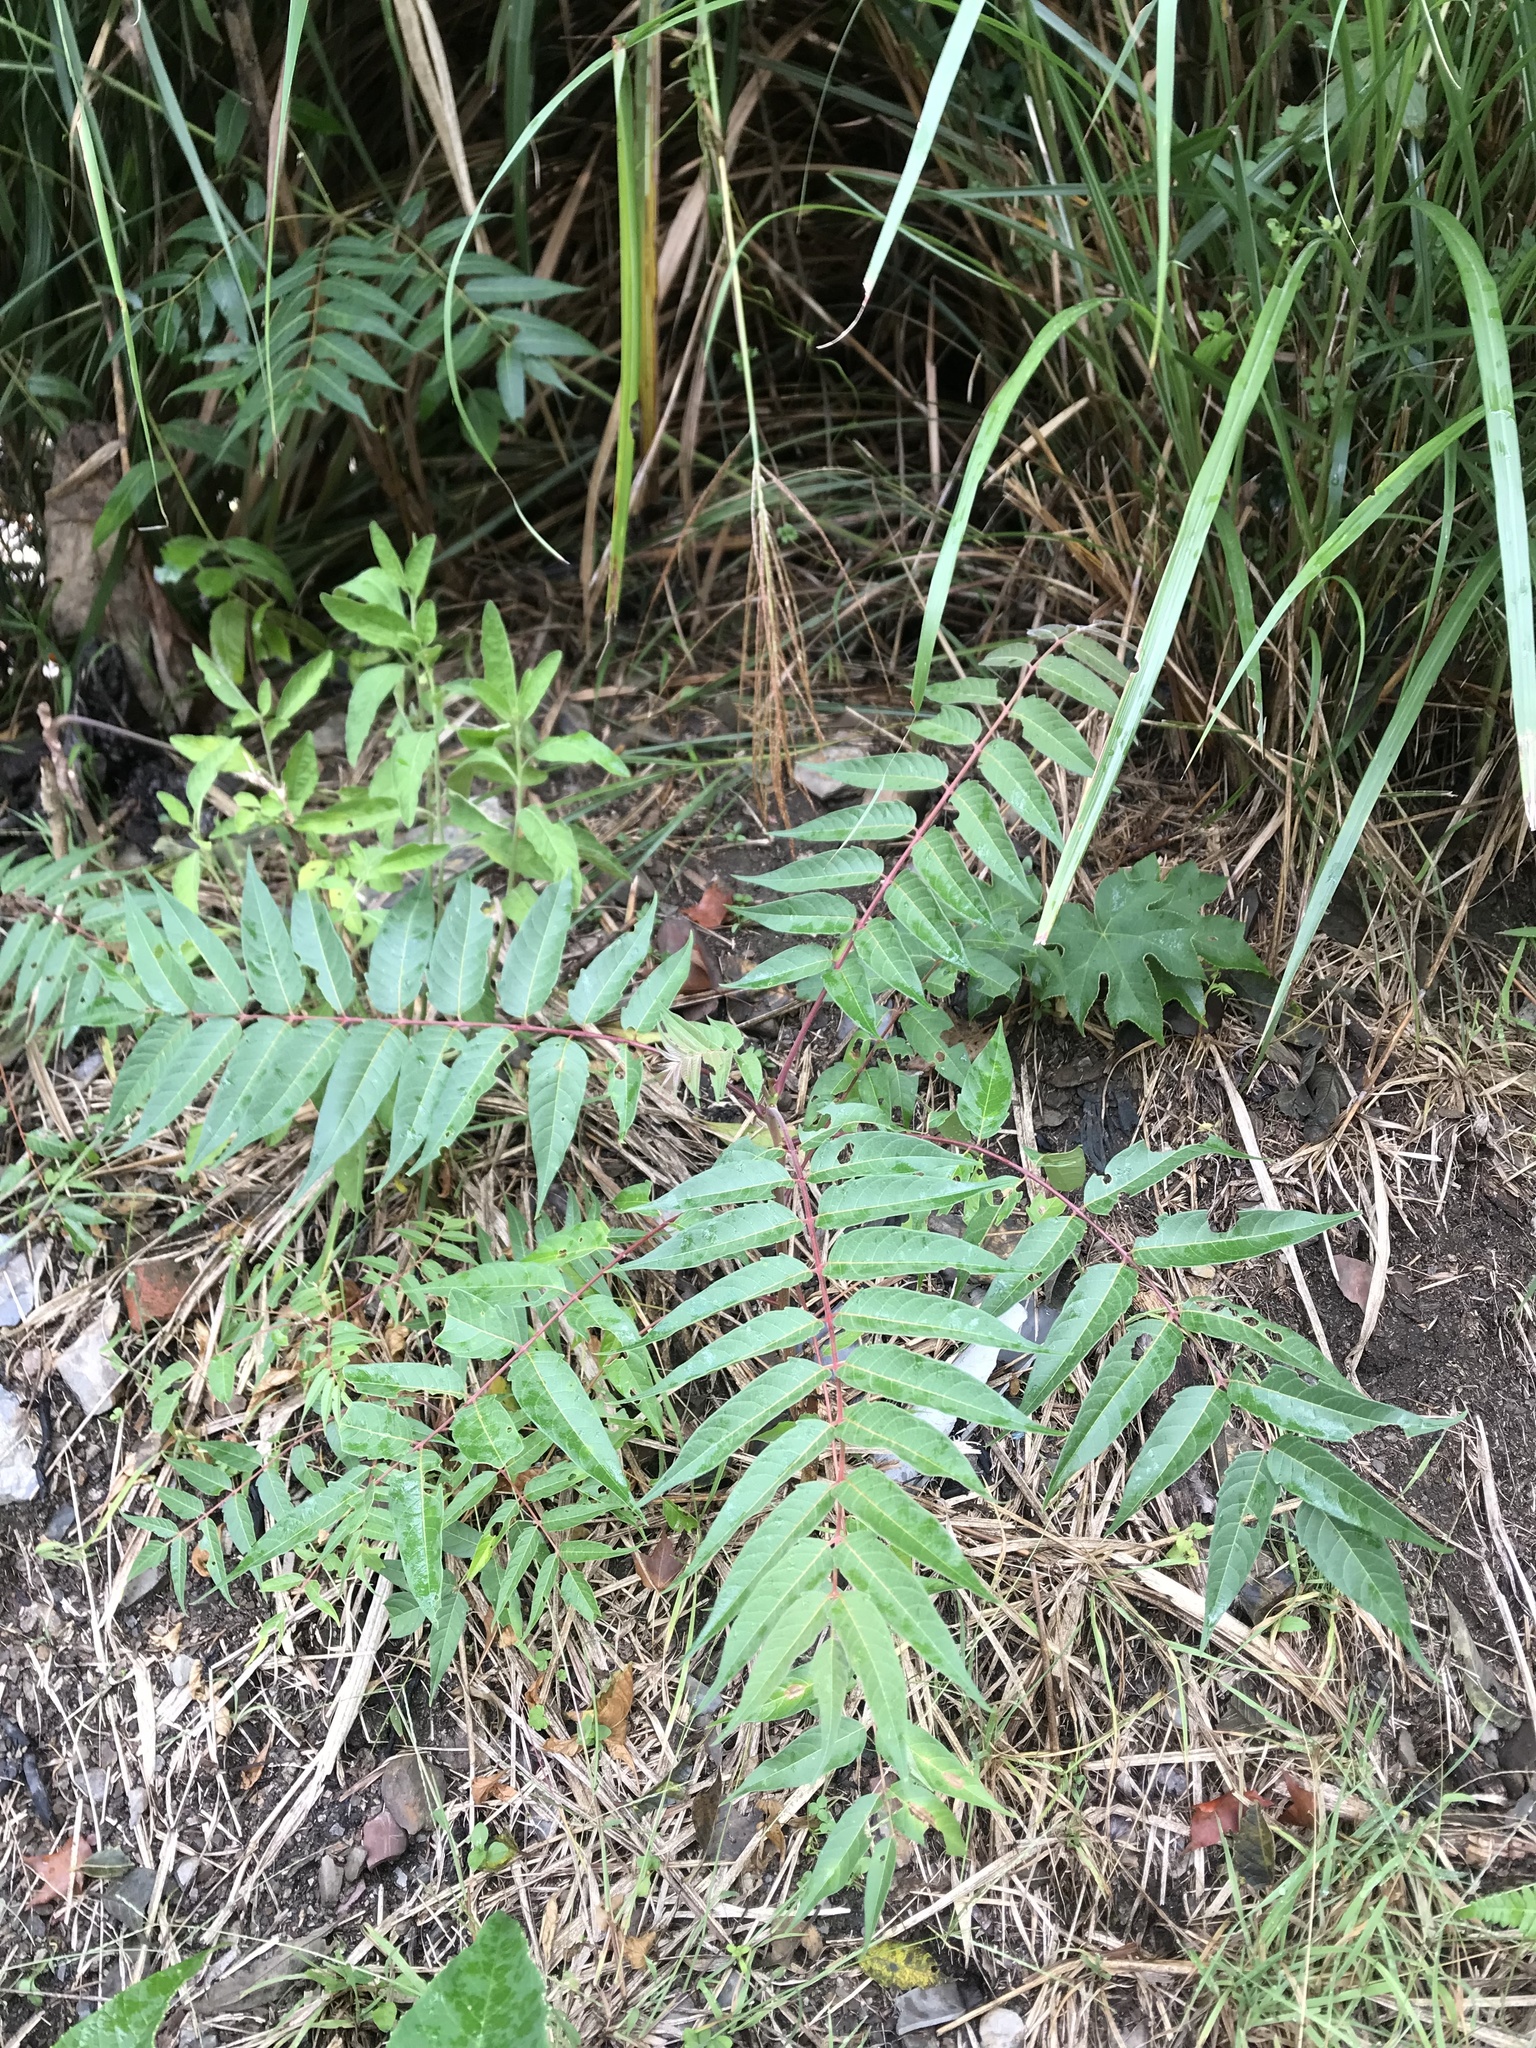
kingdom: Plantae
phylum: Tracheophyta
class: Magnoliopsida
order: Sapindales
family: Simaroubaceae
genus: Ailanthus
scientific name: Ailanthus altissima
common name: Tree-of-heaven
